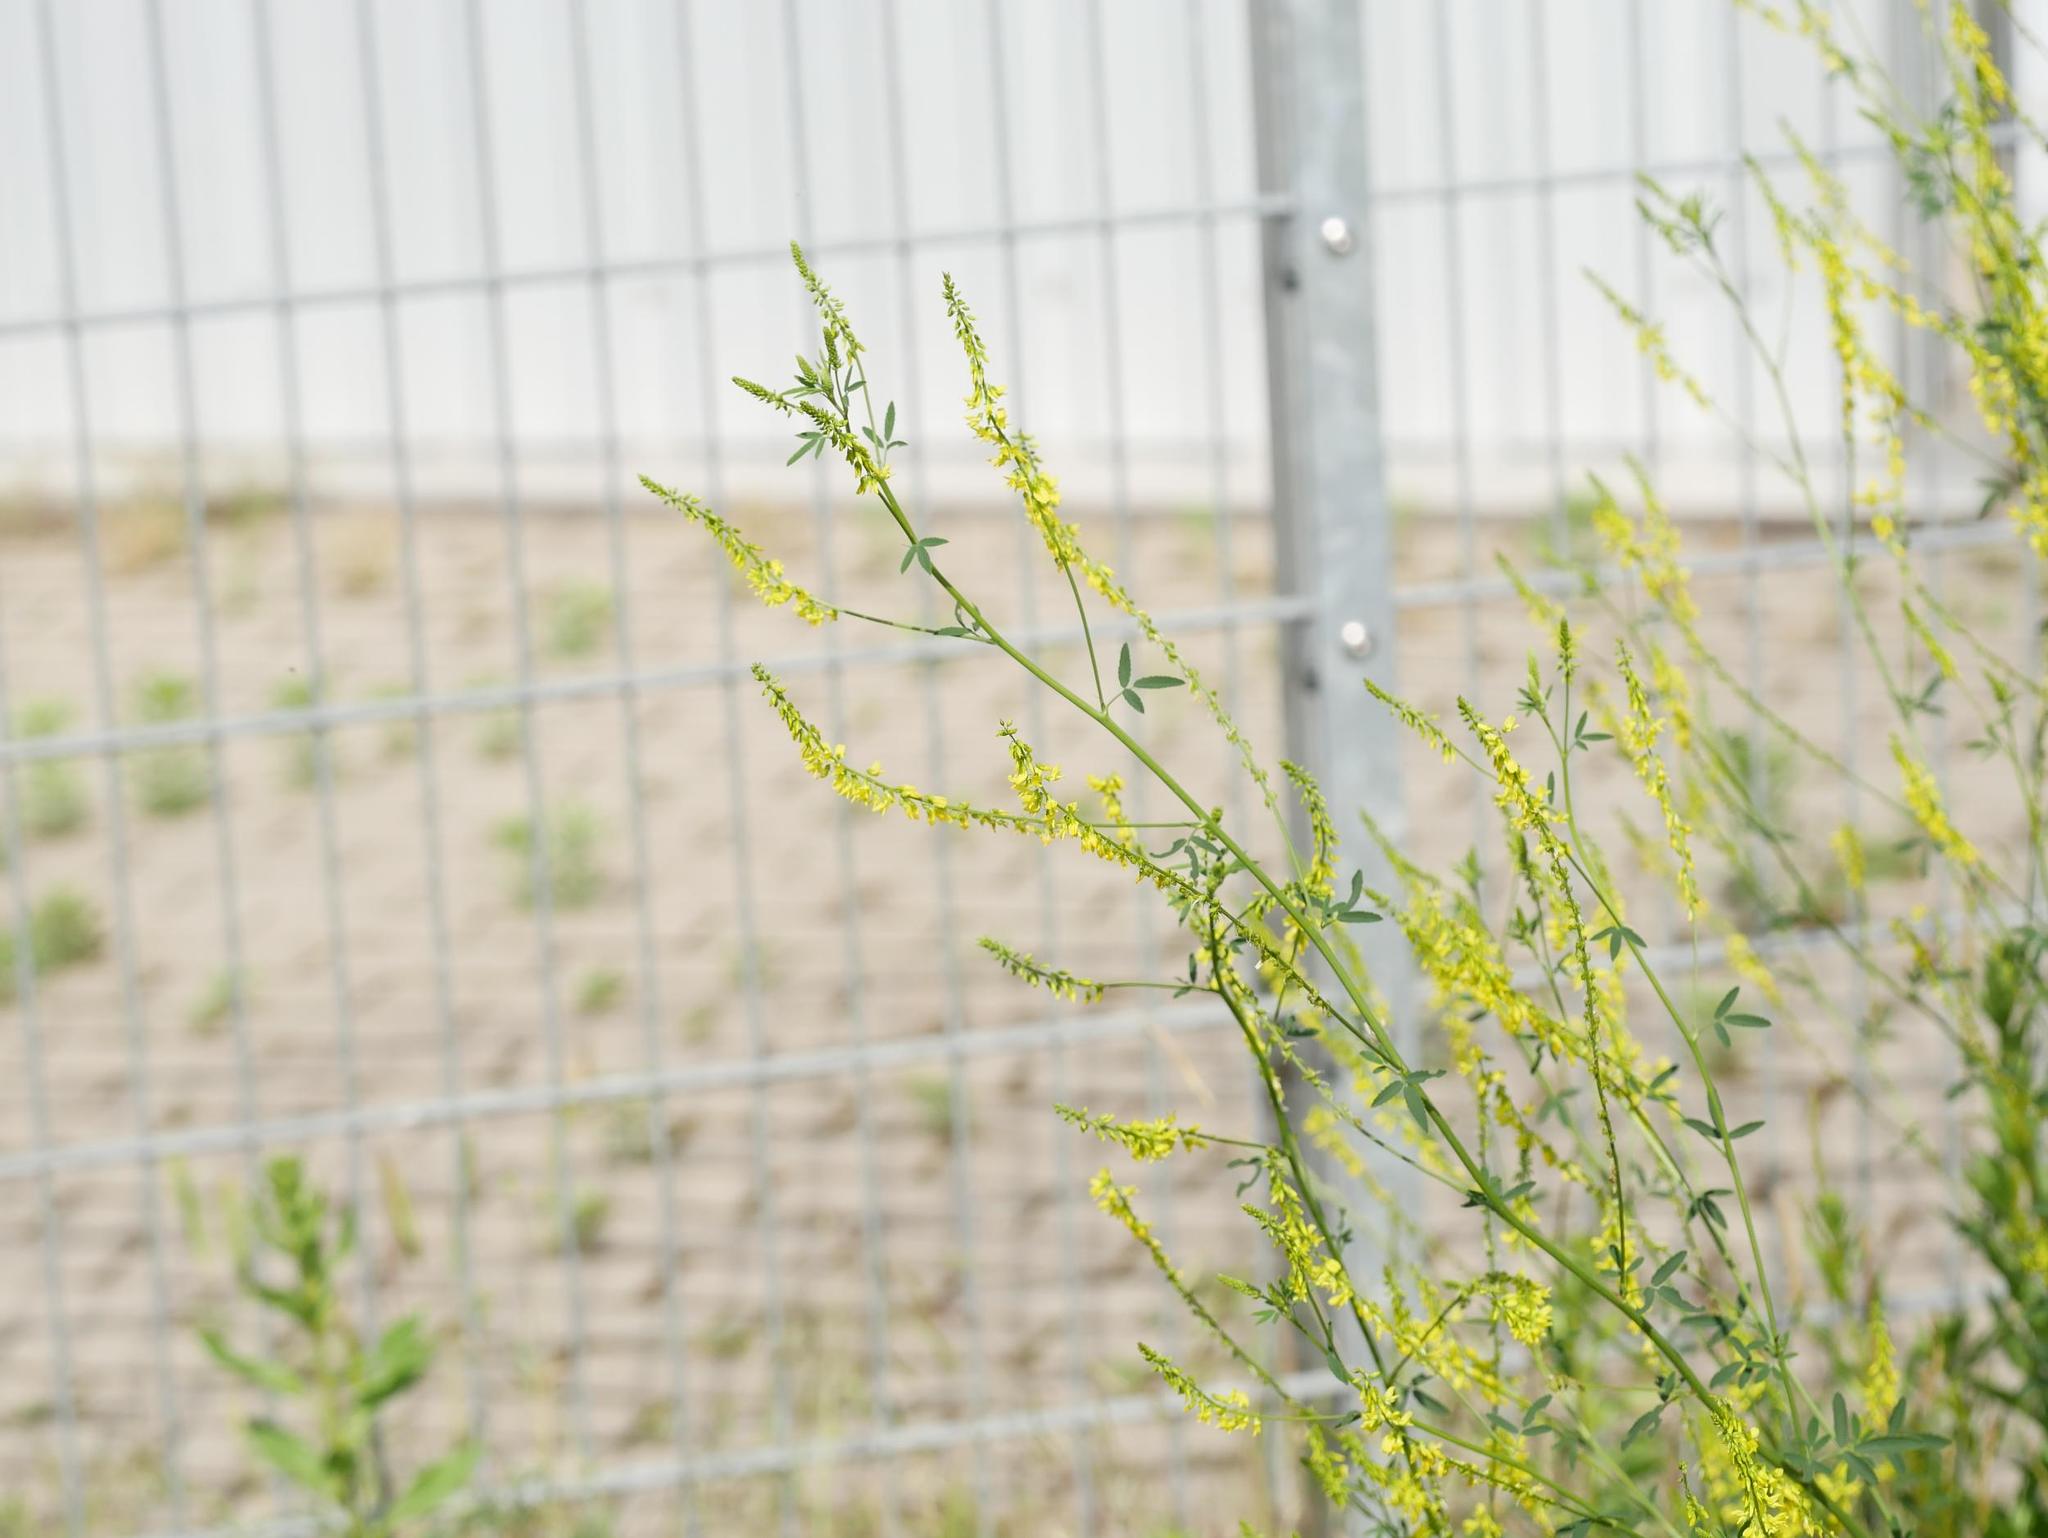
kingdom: Plantae
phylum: Tracheophyta
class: Magnoliopsida
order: Fabales
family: Fabaceae
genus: Melilotus
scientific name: Melilotus officinalis
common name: Sweetclover
